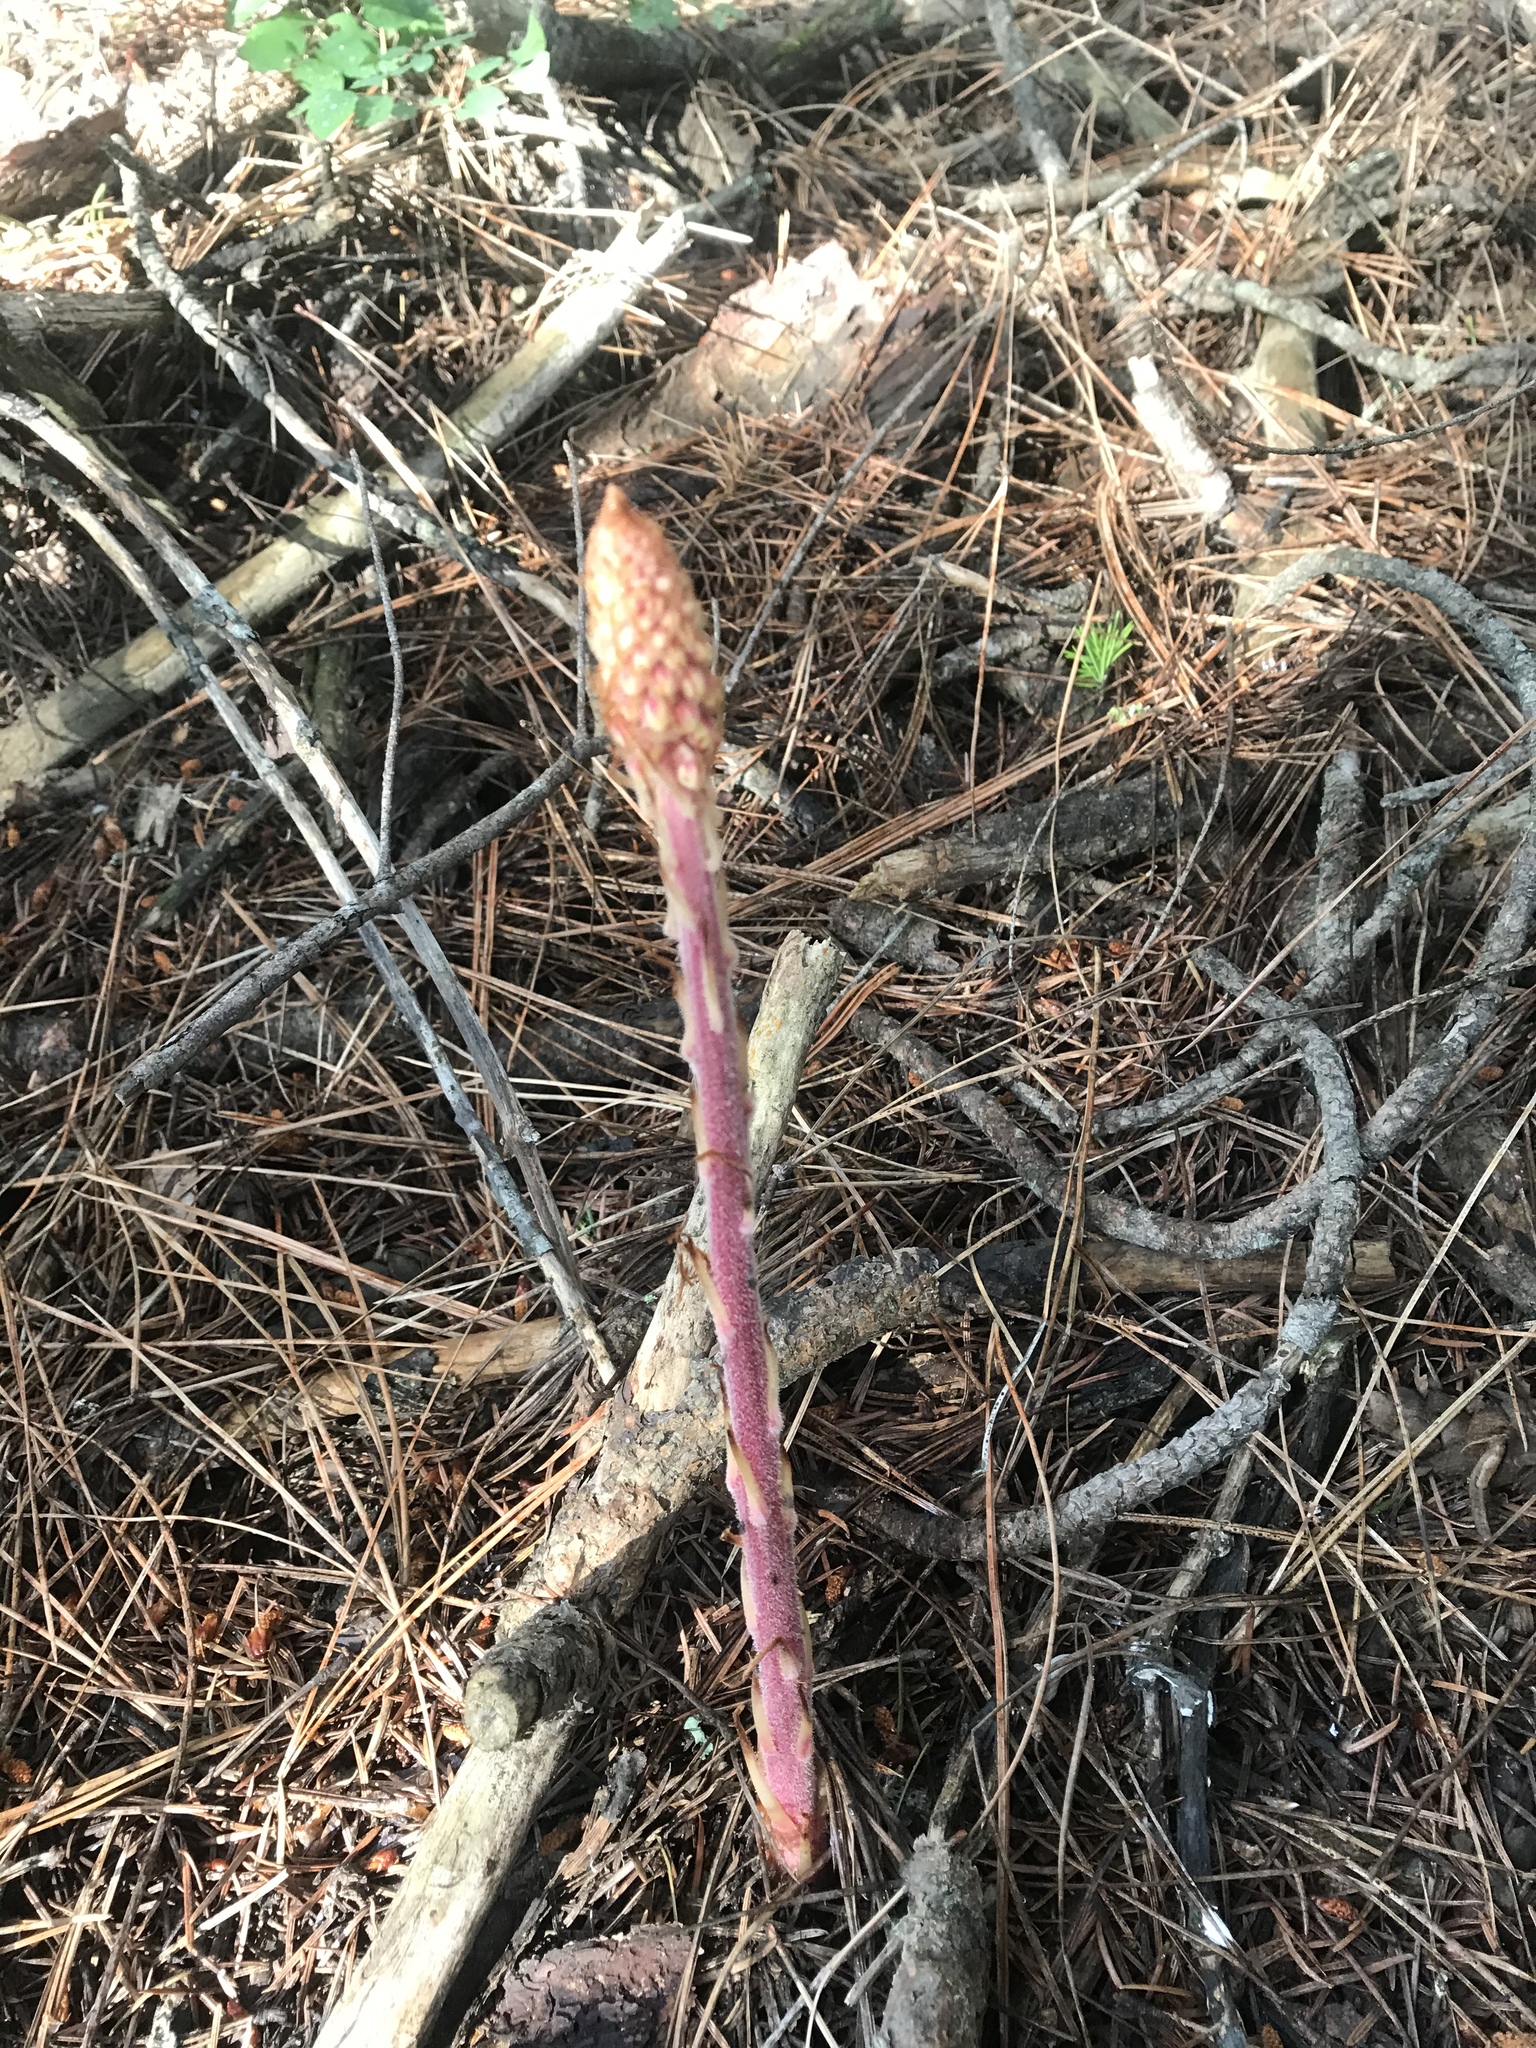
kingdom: Plantae
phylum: Tracheophyta
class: Magnoliopsida
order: Ericales
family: Ericaceae
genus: Pterospora
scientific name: Pterospora andromedea
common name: Giant bird's-nest
